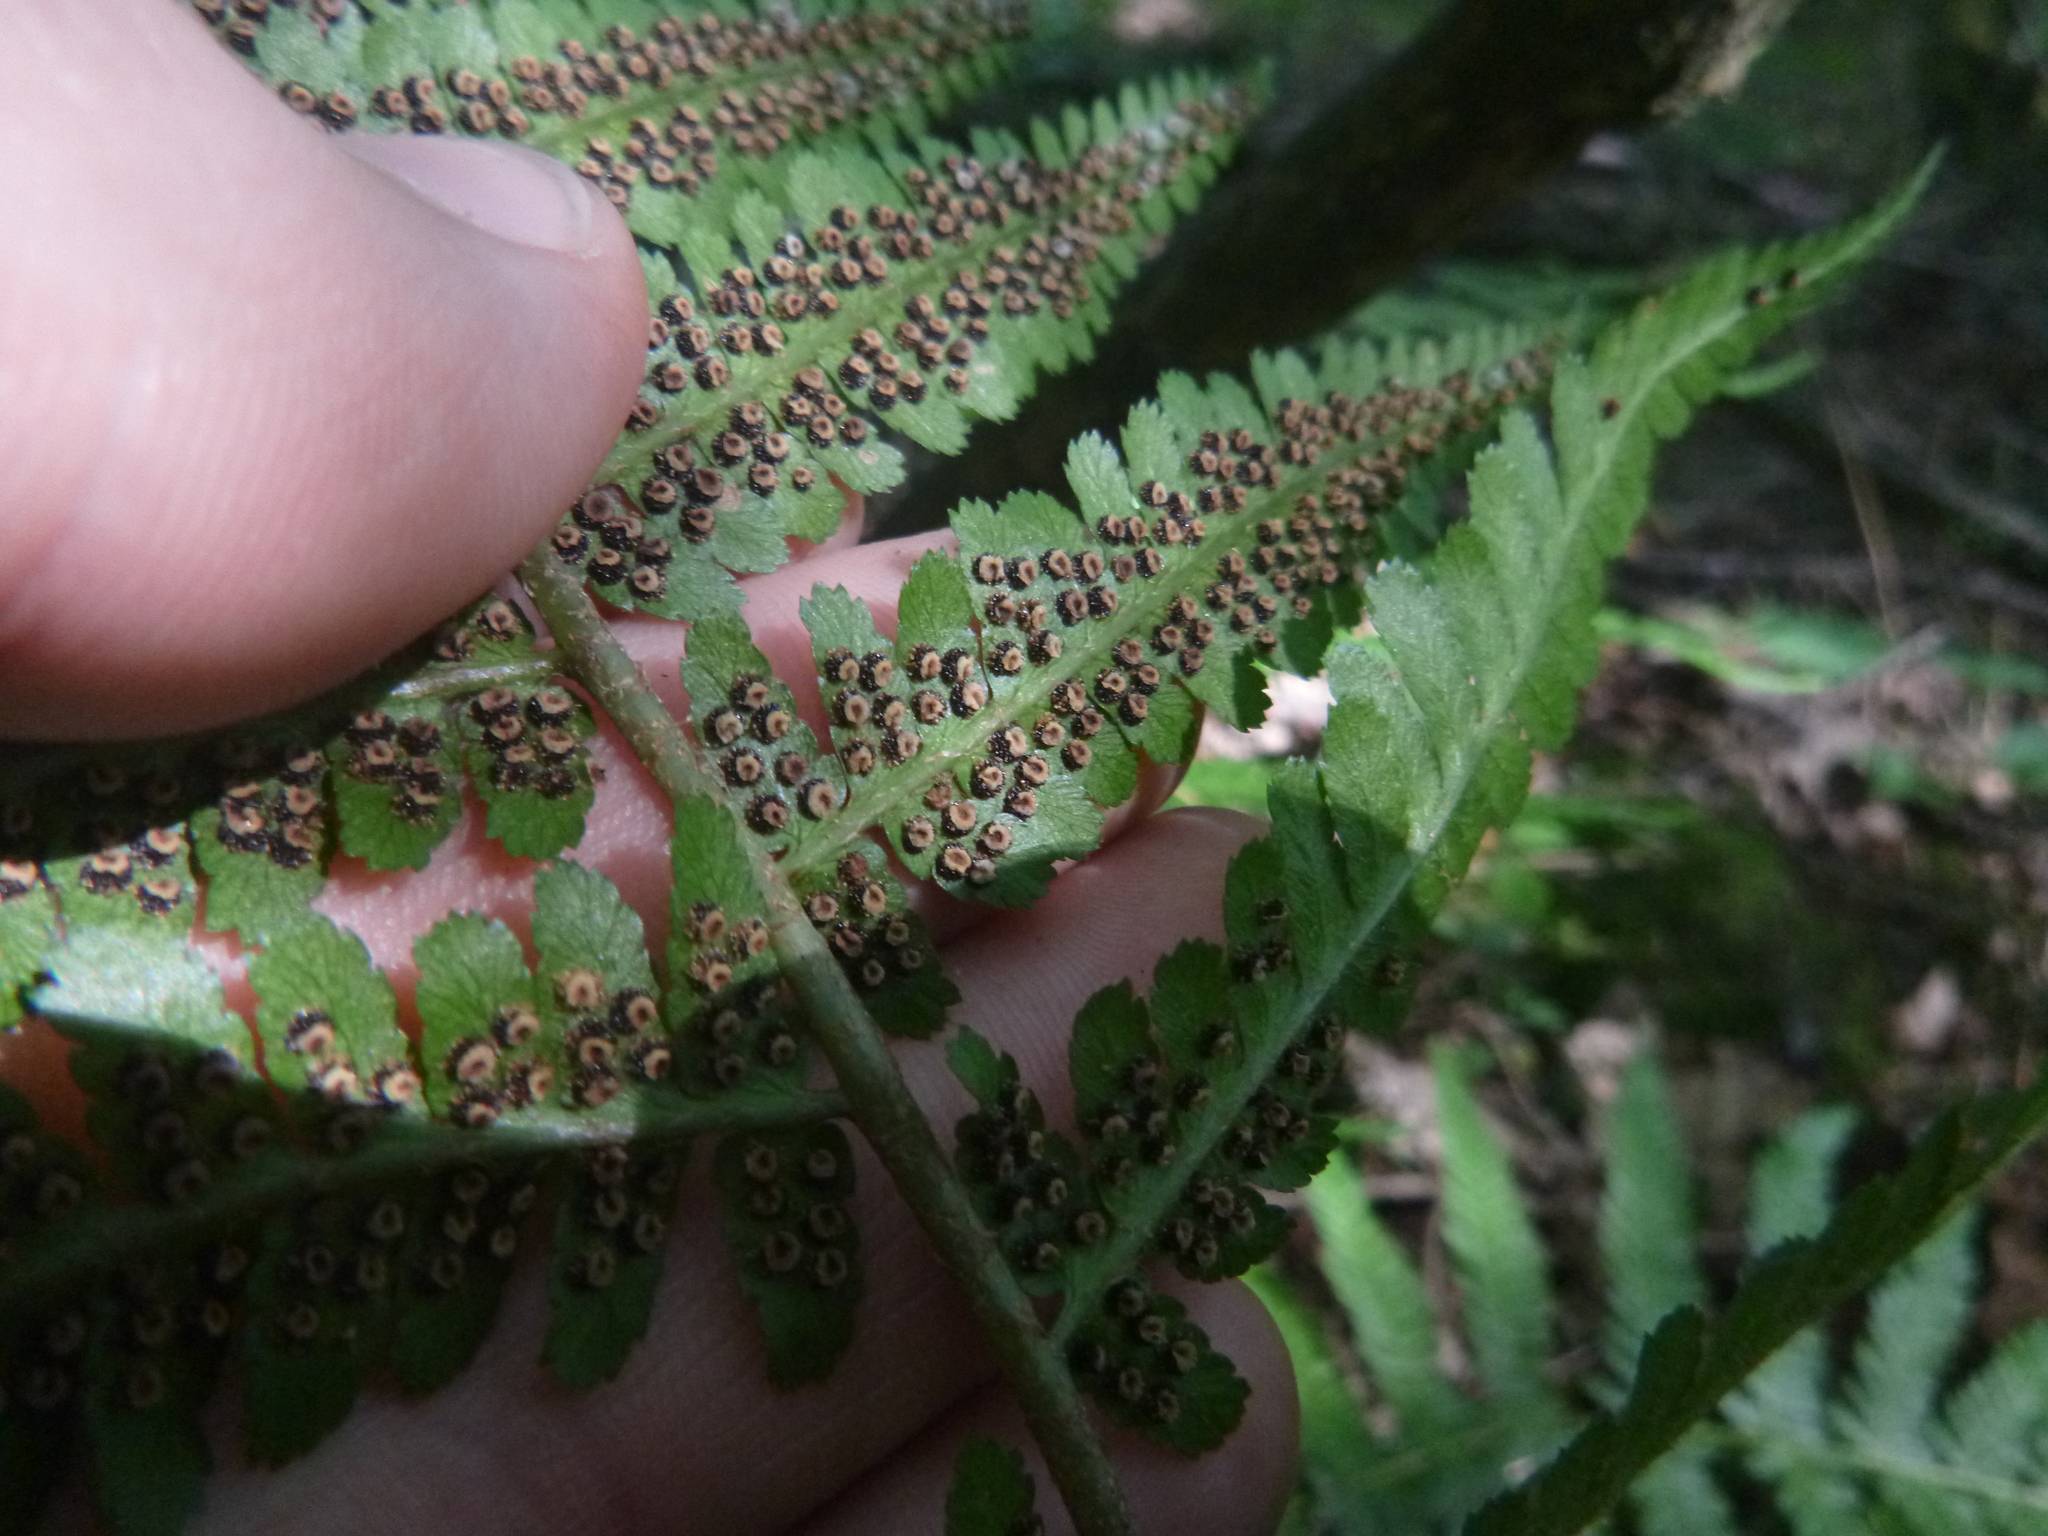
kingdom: Plantae
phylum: Tracheophyta
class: Polypodiopsida
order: Polypodiales
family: Dryopteridaceae
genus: Dryopteris
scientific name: Dryopteris filix-mas
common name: Male fern
